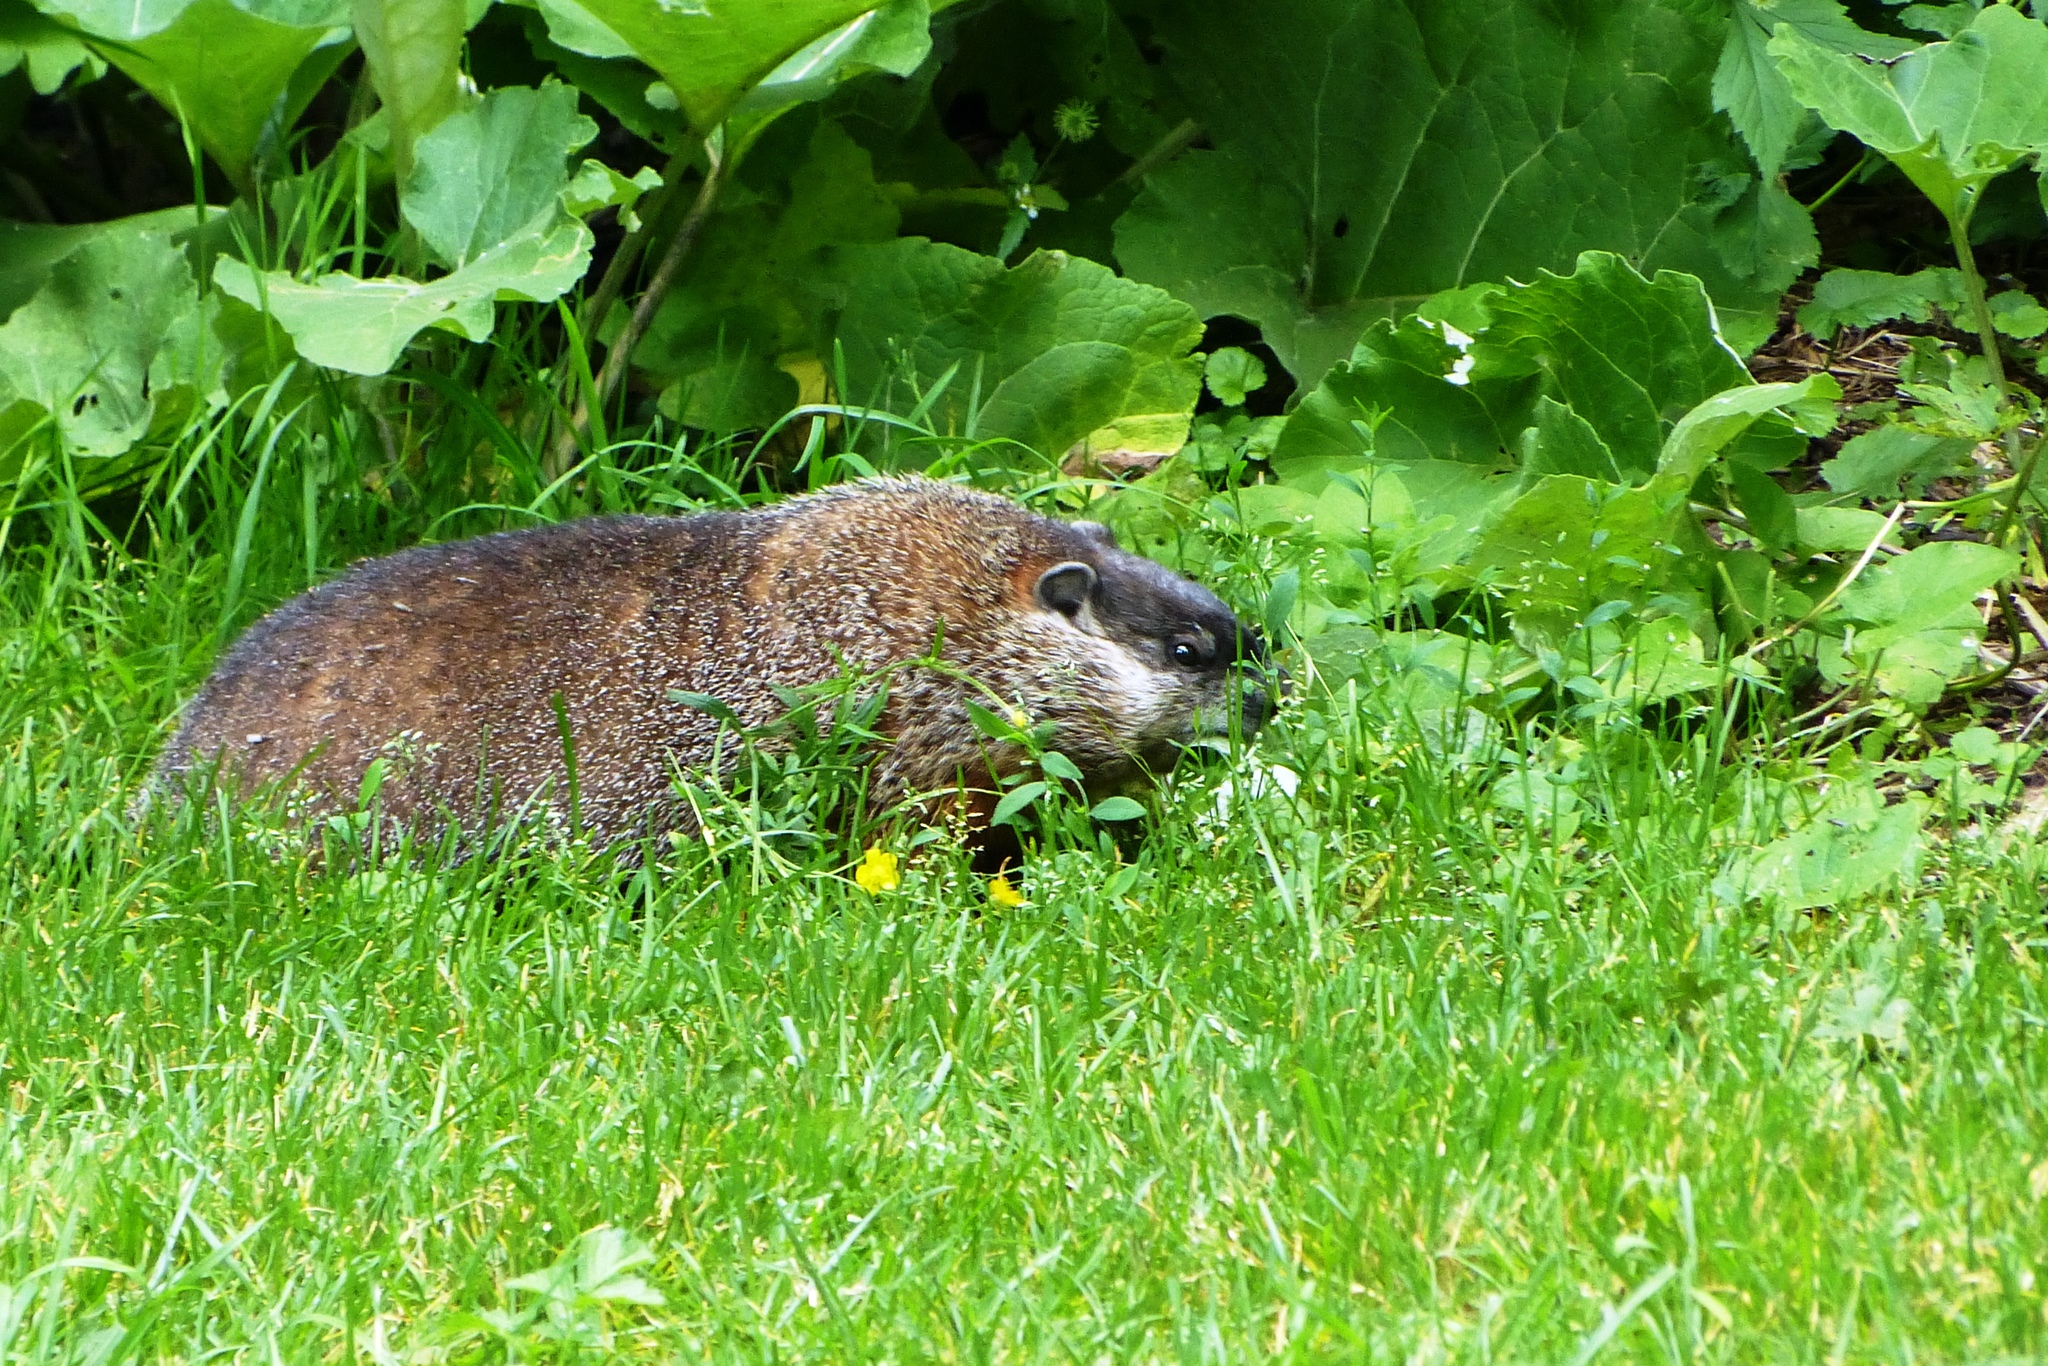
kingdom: Animalia
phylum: Chordata
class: Mammalia
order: Rodentia
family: Sciuridae
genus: Marmota
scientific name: Marmota monax
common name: Groundhog
